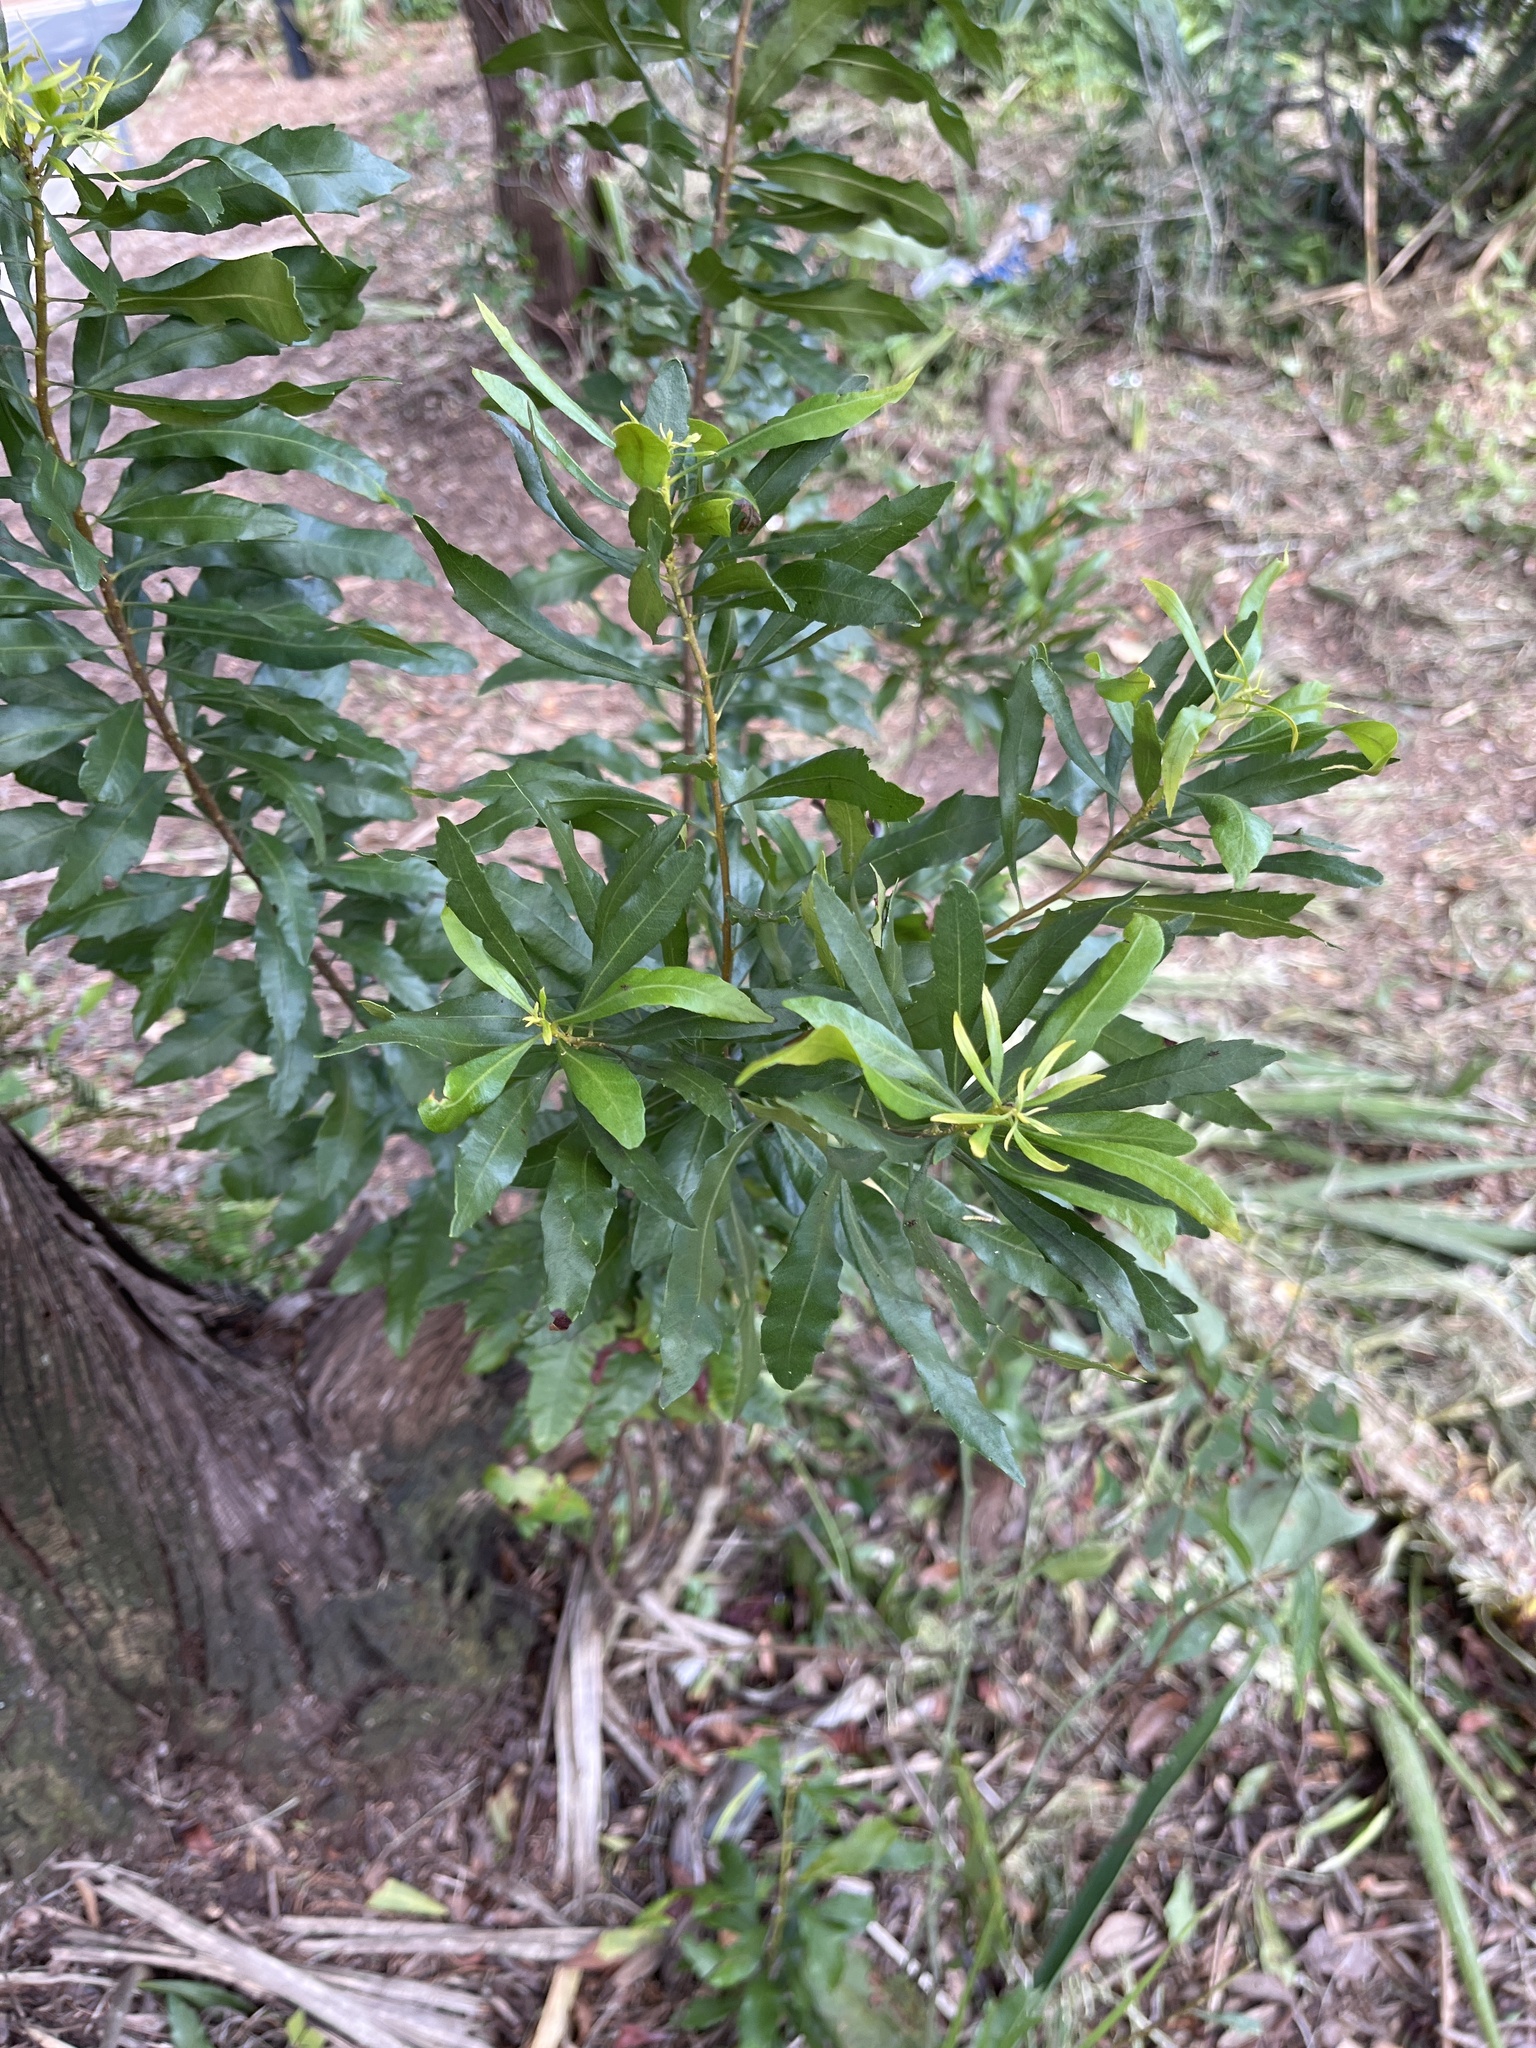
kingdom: Plantae
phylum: Tracheophyta
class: Magnoliopsida
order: Fagales
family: Myricaceae
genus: Morella
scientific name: Morella cerifera
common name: Wax myrtle
